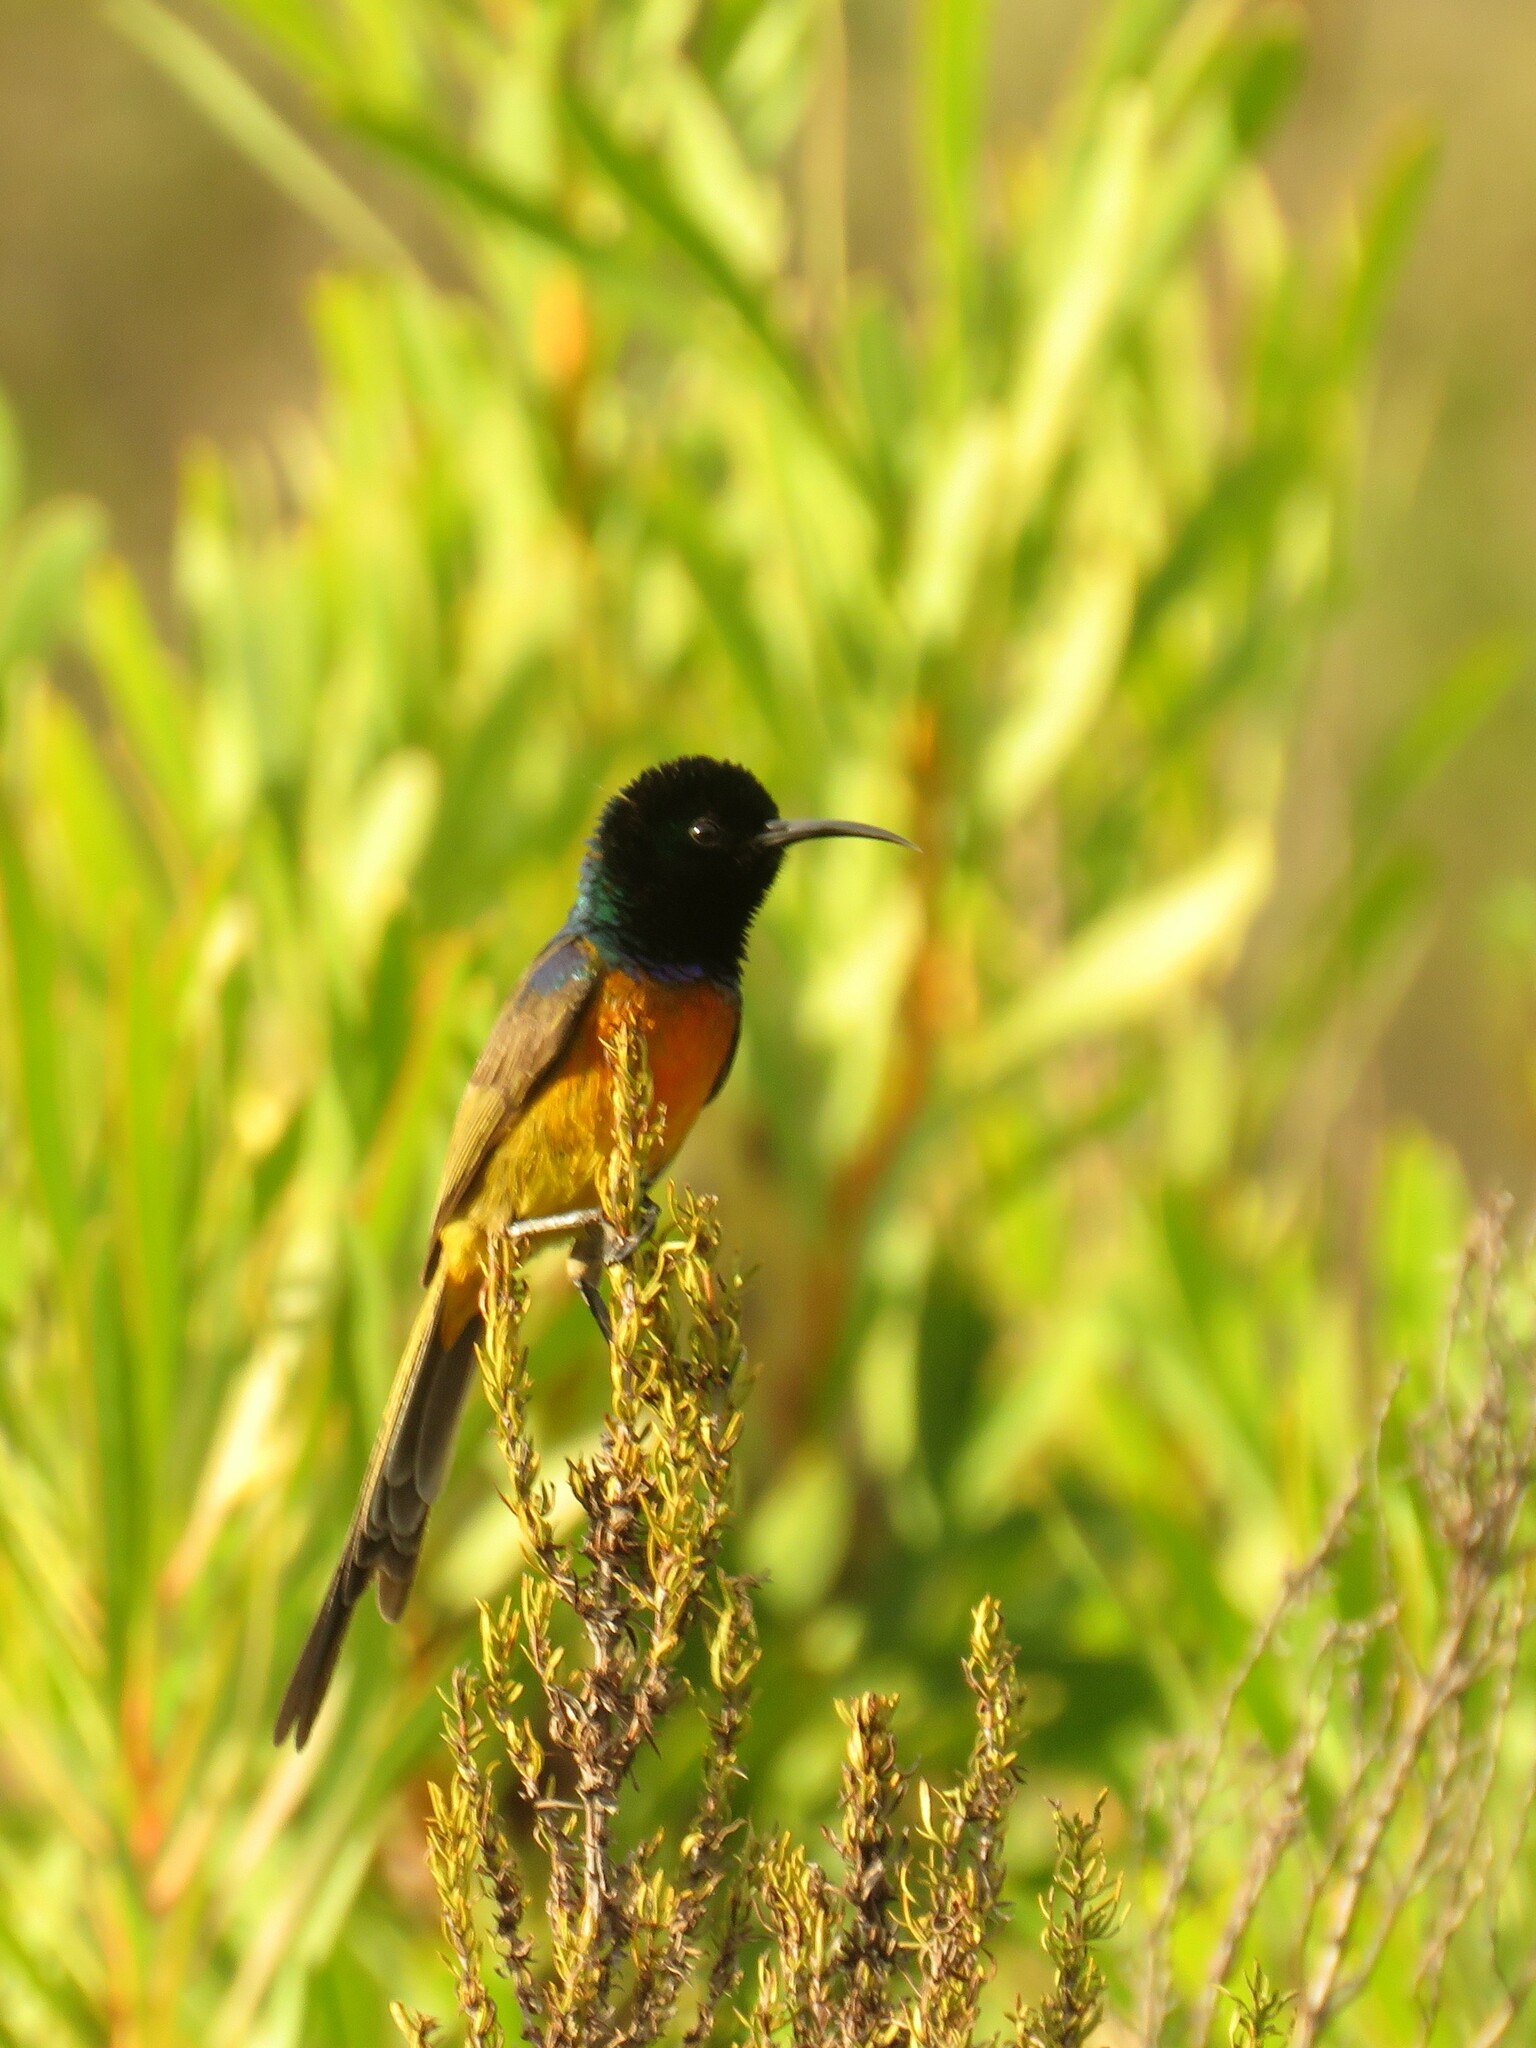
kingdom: Animalia
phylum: Chordata
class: Aves
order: Passeriformes
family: Nectariniidae
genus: Anthobaphes
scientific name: Anthobaphes violacea
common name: Orange-breasted sunbird
